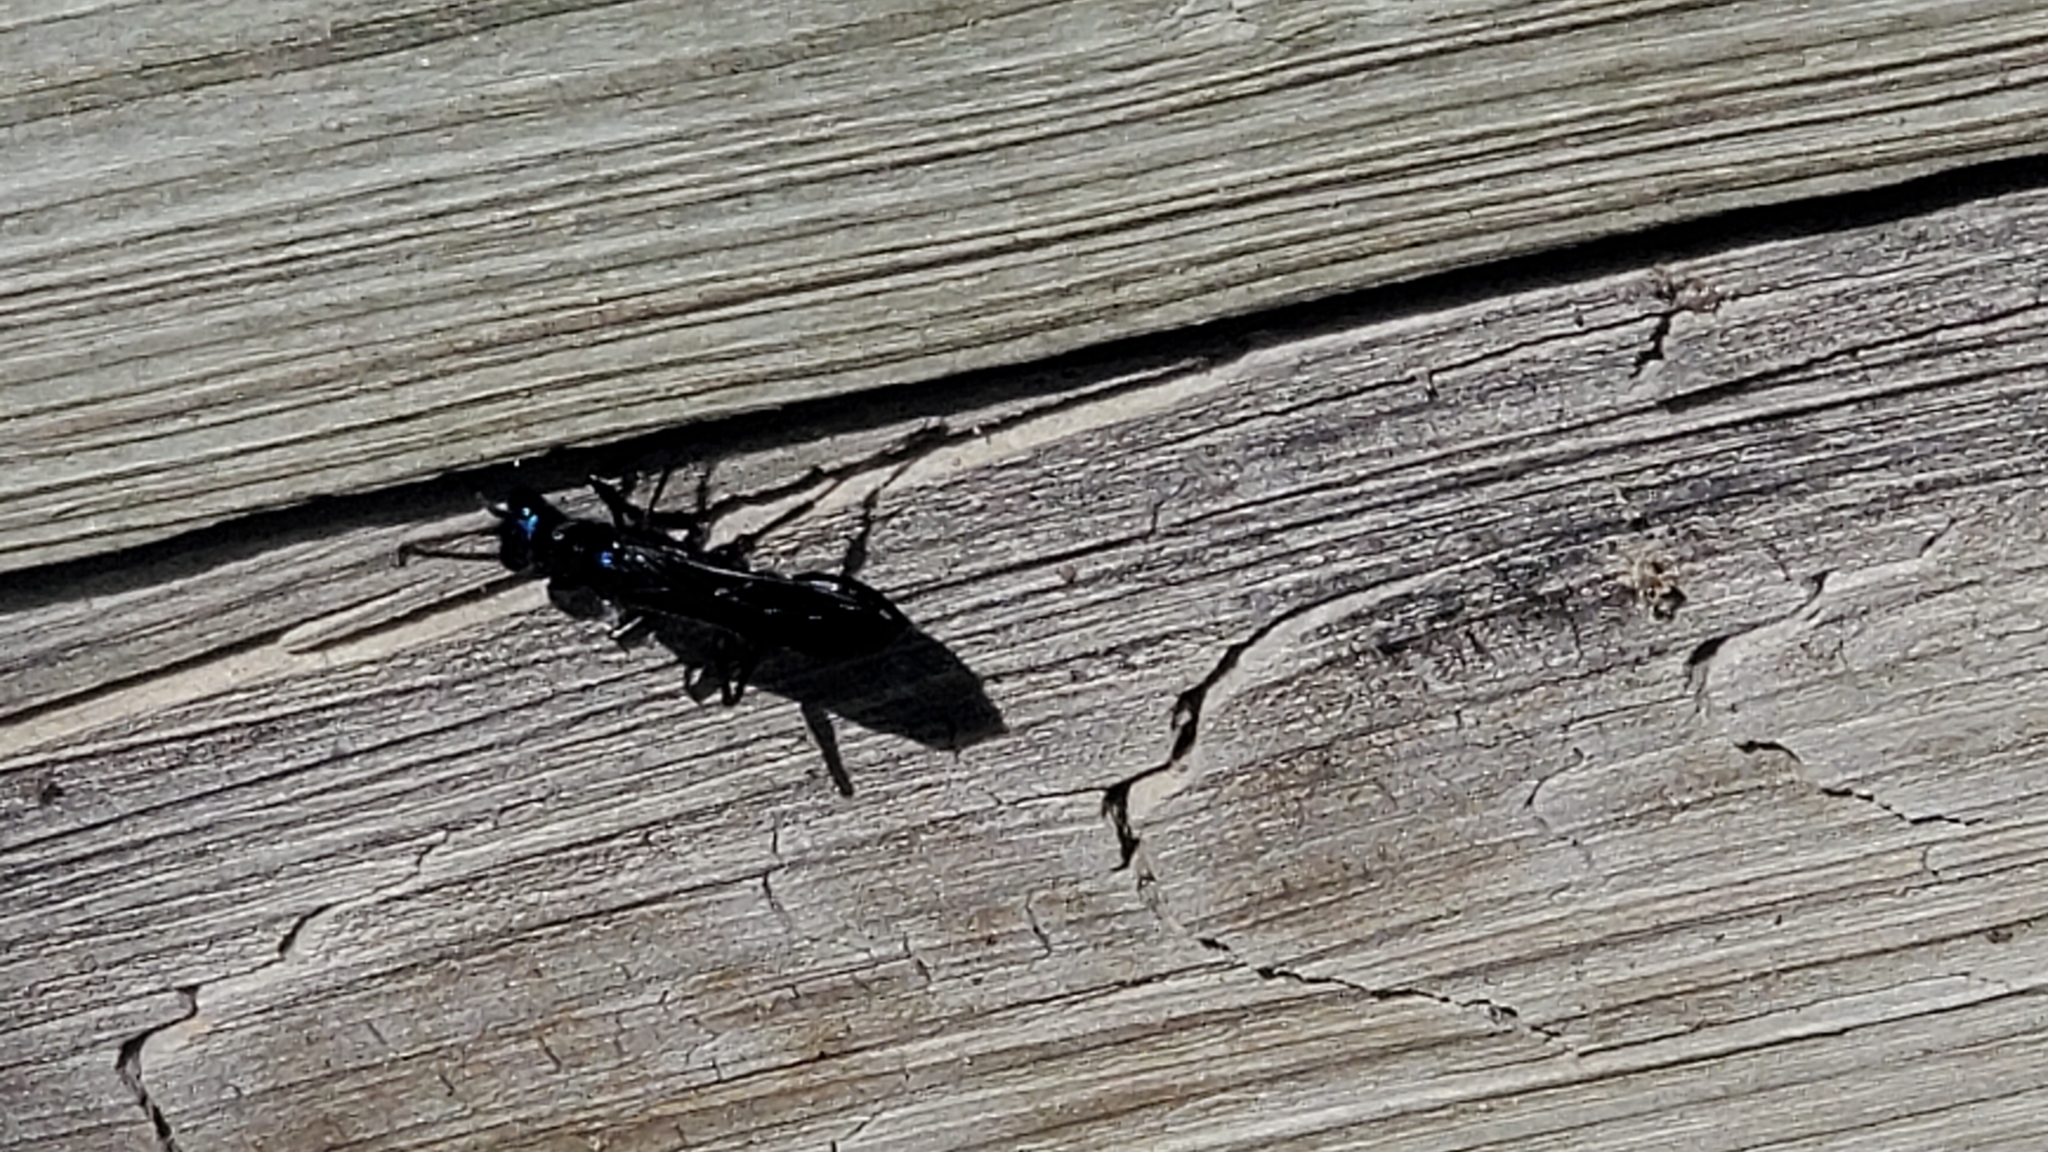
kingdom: Animalia
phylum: Arthropoda
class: Insecta
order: Hymenoptera
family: Sphecidae
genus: Chlorion
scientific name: Chlorion aerarium
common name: Steel-blue cricket hunter
